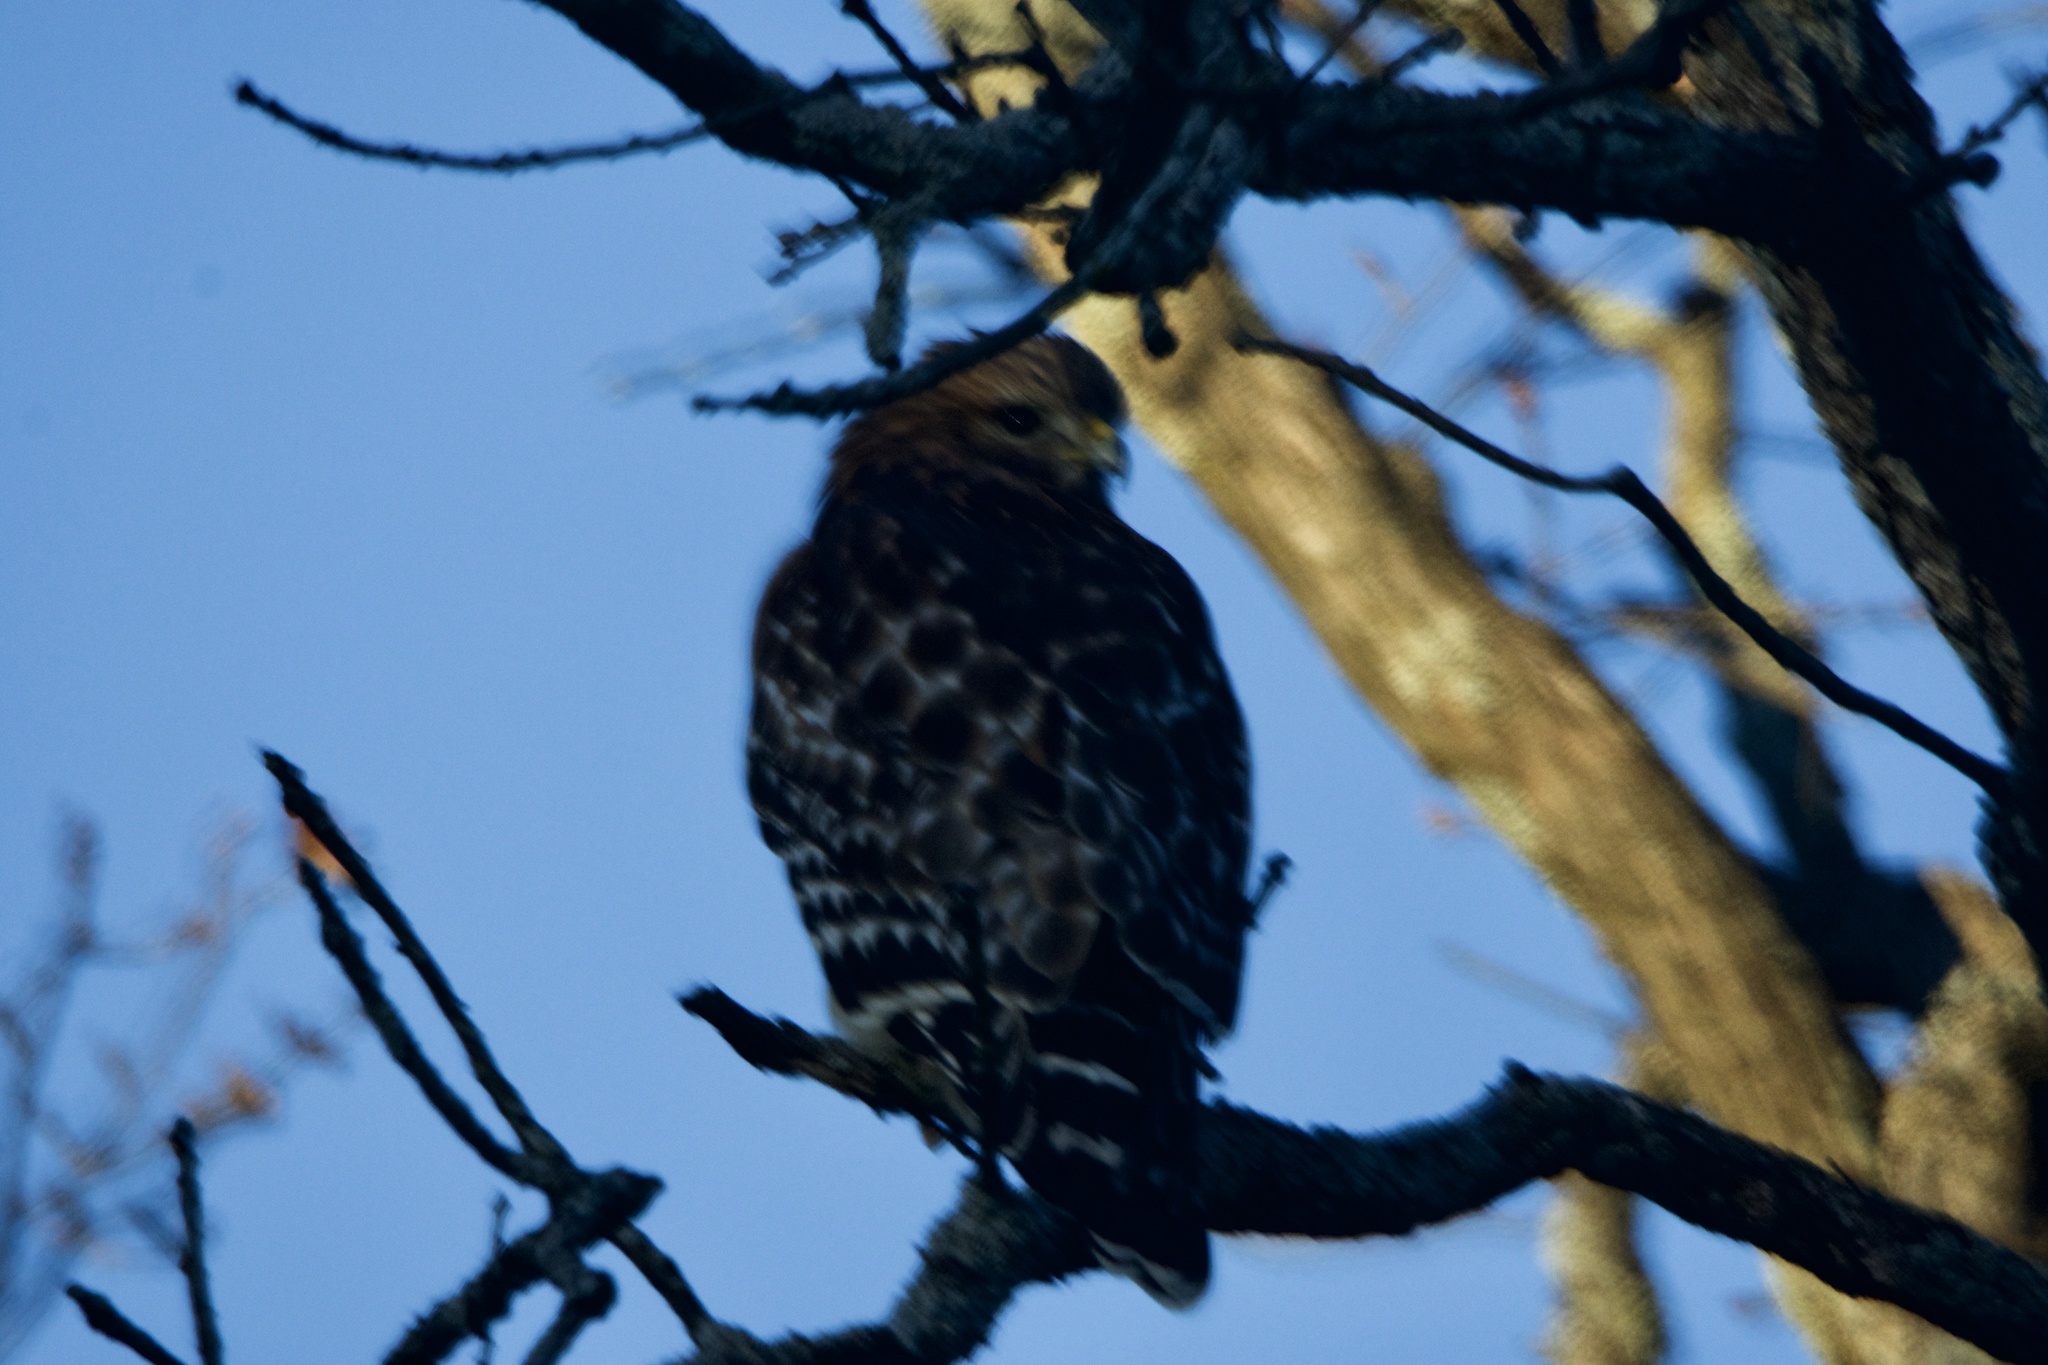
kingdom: Animalia
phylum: Chordata
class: Aves
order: Accipitriformes
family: Accipitridae
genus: Buteo
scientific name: Buteo lineatus
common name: Red-shouldered hawk
